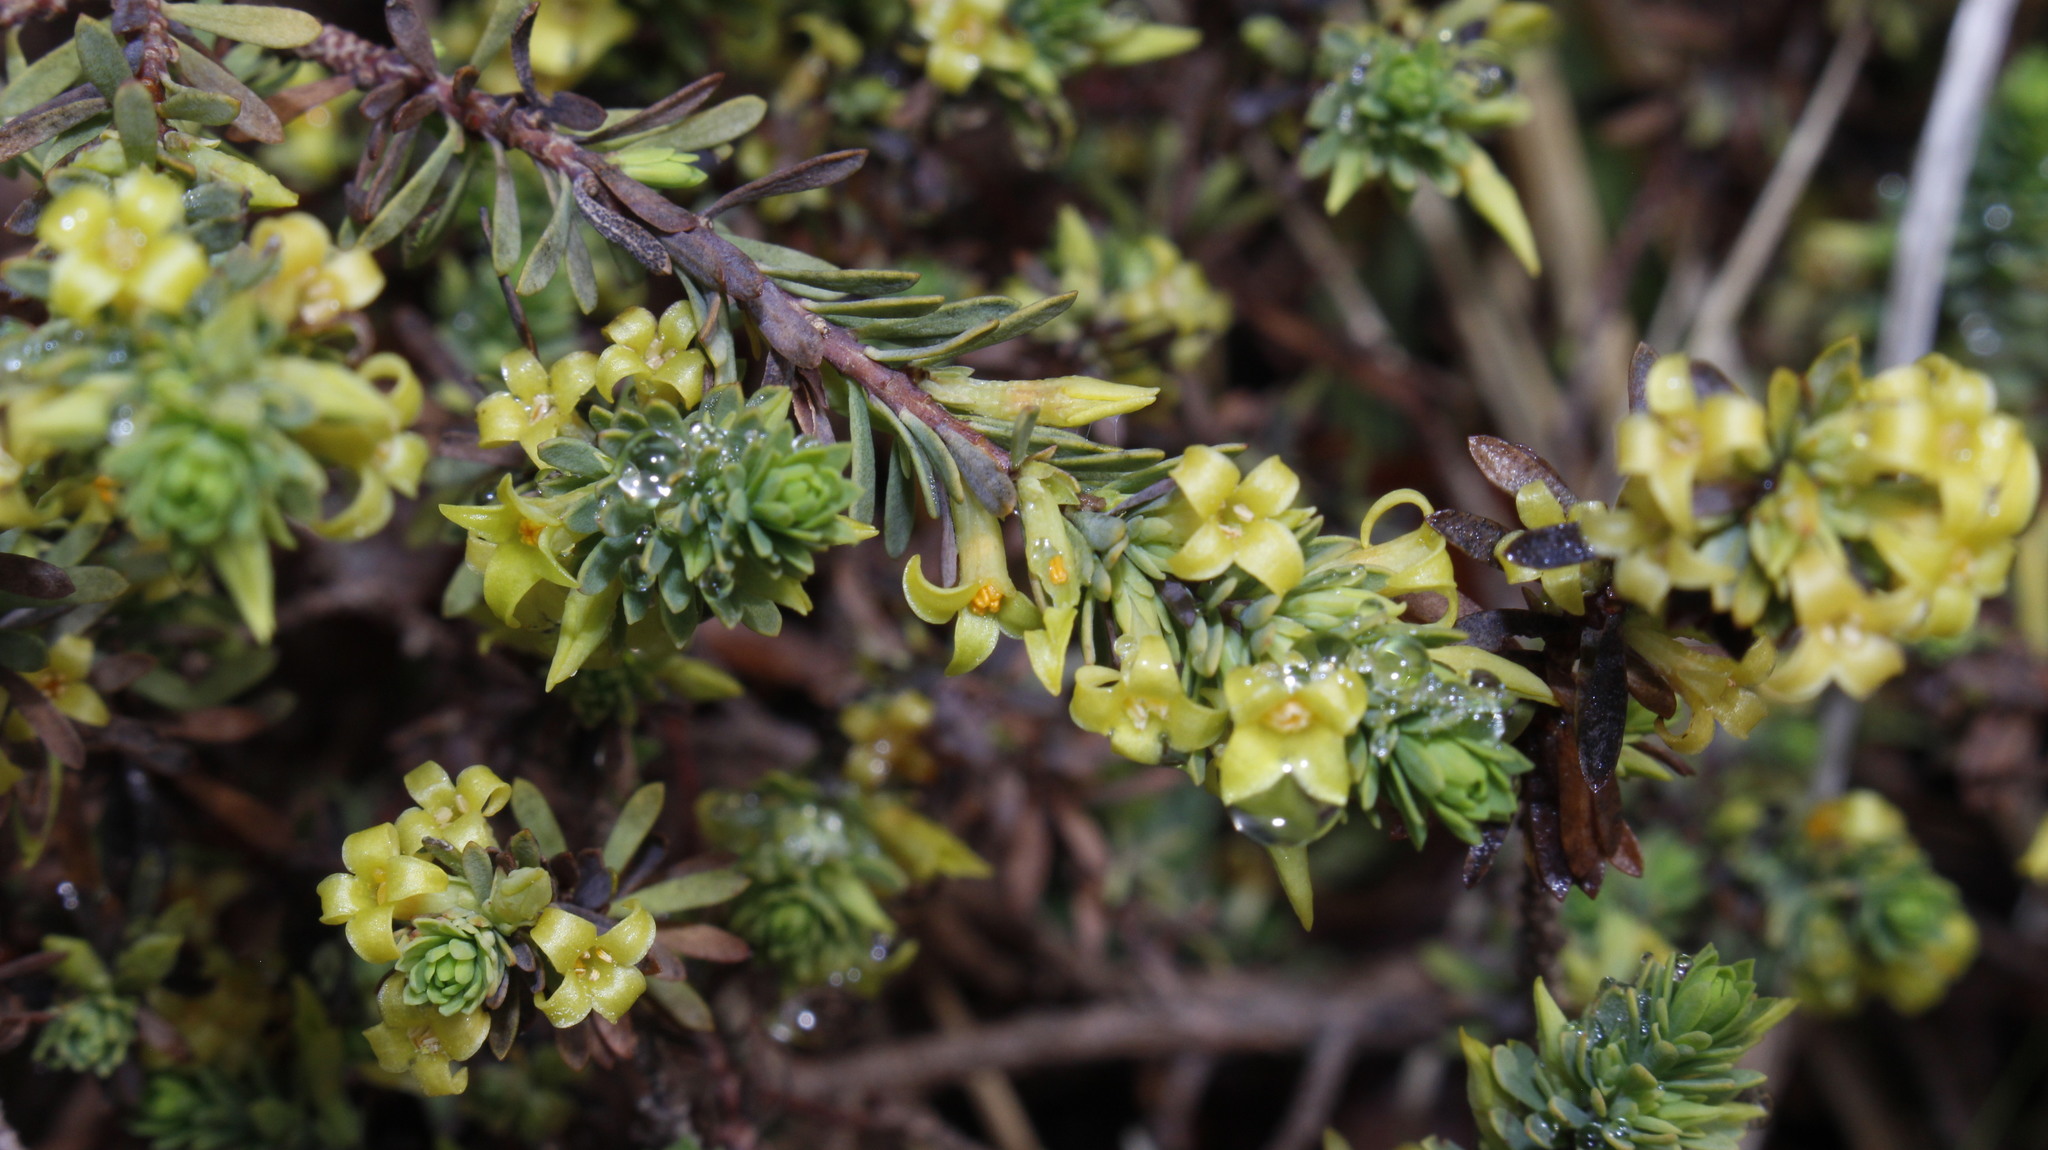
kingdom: Plantae
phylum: Tracheophyta
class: Magnoliopsida
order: Malvales
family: Thymelaeaceae
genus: Thymelaea
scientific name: Thymelaea dioica
